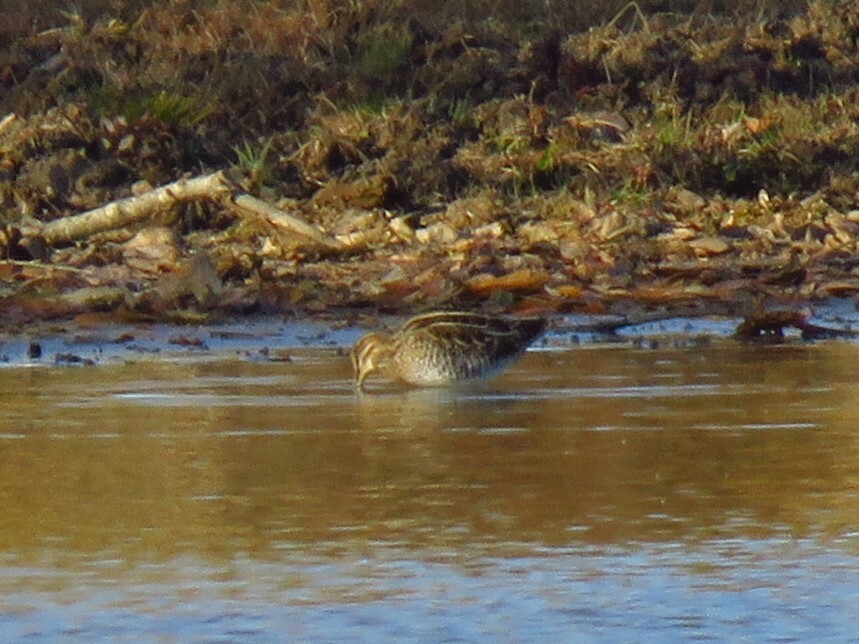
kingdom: Animalia
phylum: Chordata
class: Aves
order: Charadriiformes
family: Scolopacidae
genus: Gallinago
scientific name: Gallinago delicata
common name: Wilson's snipe
